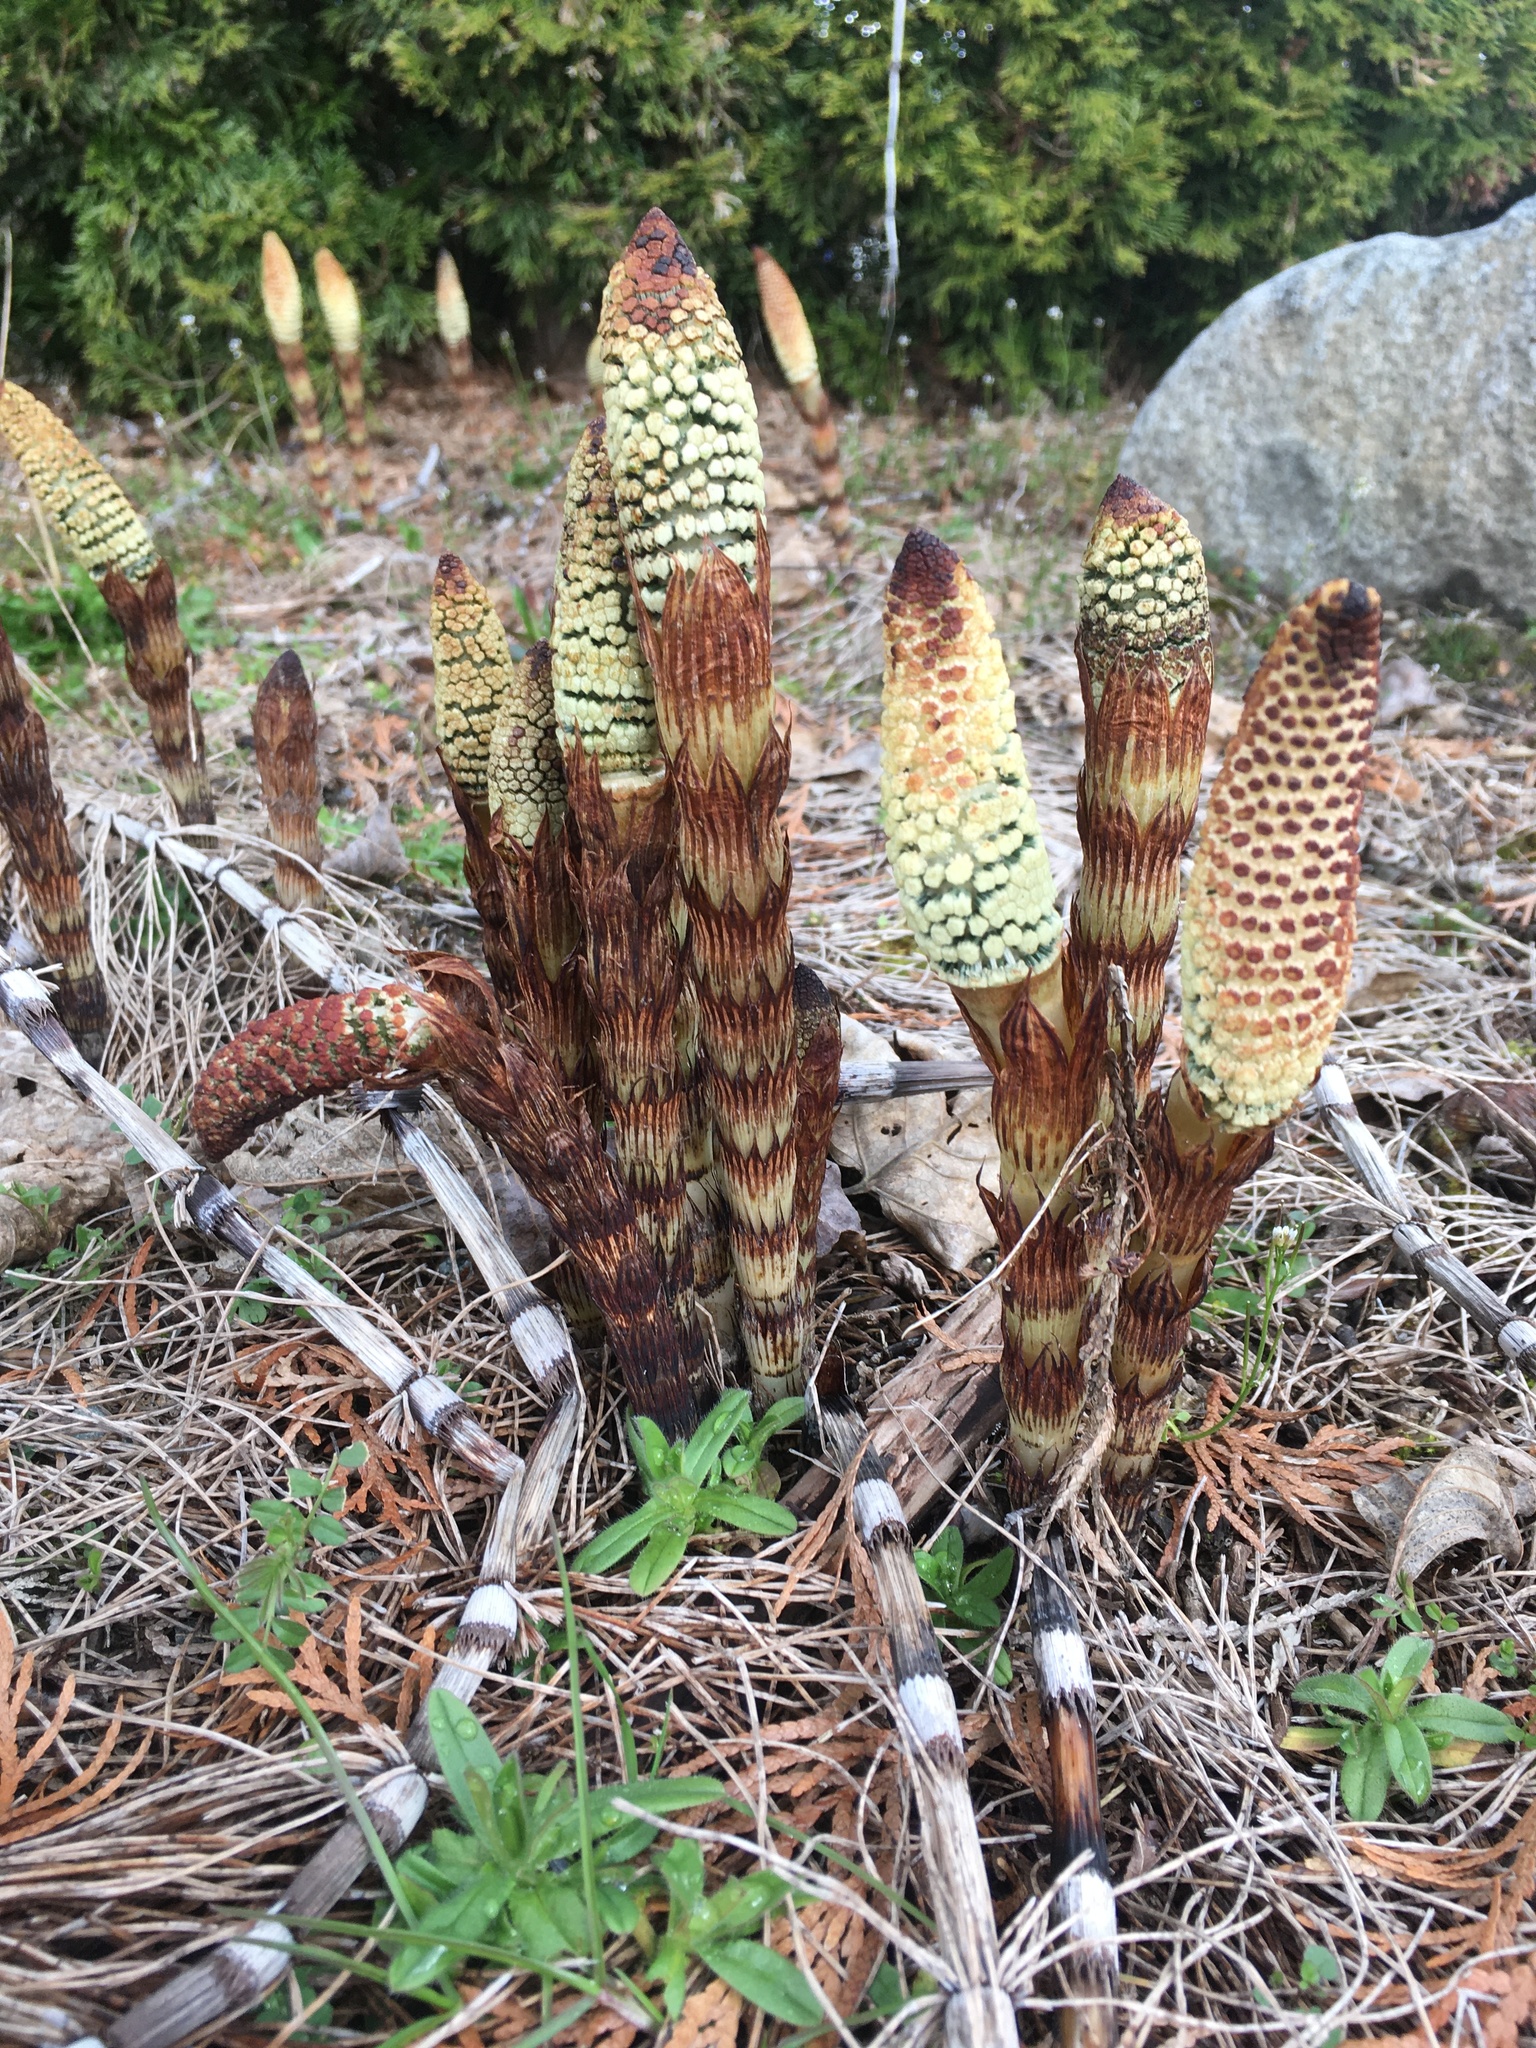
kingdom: Plantae
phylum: Tracheophyta
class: Polypodiopsida
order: Equisetales
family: Equisetaceae
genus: Equisetum
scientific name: Equisetum braunii
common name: Braun's horsetail
